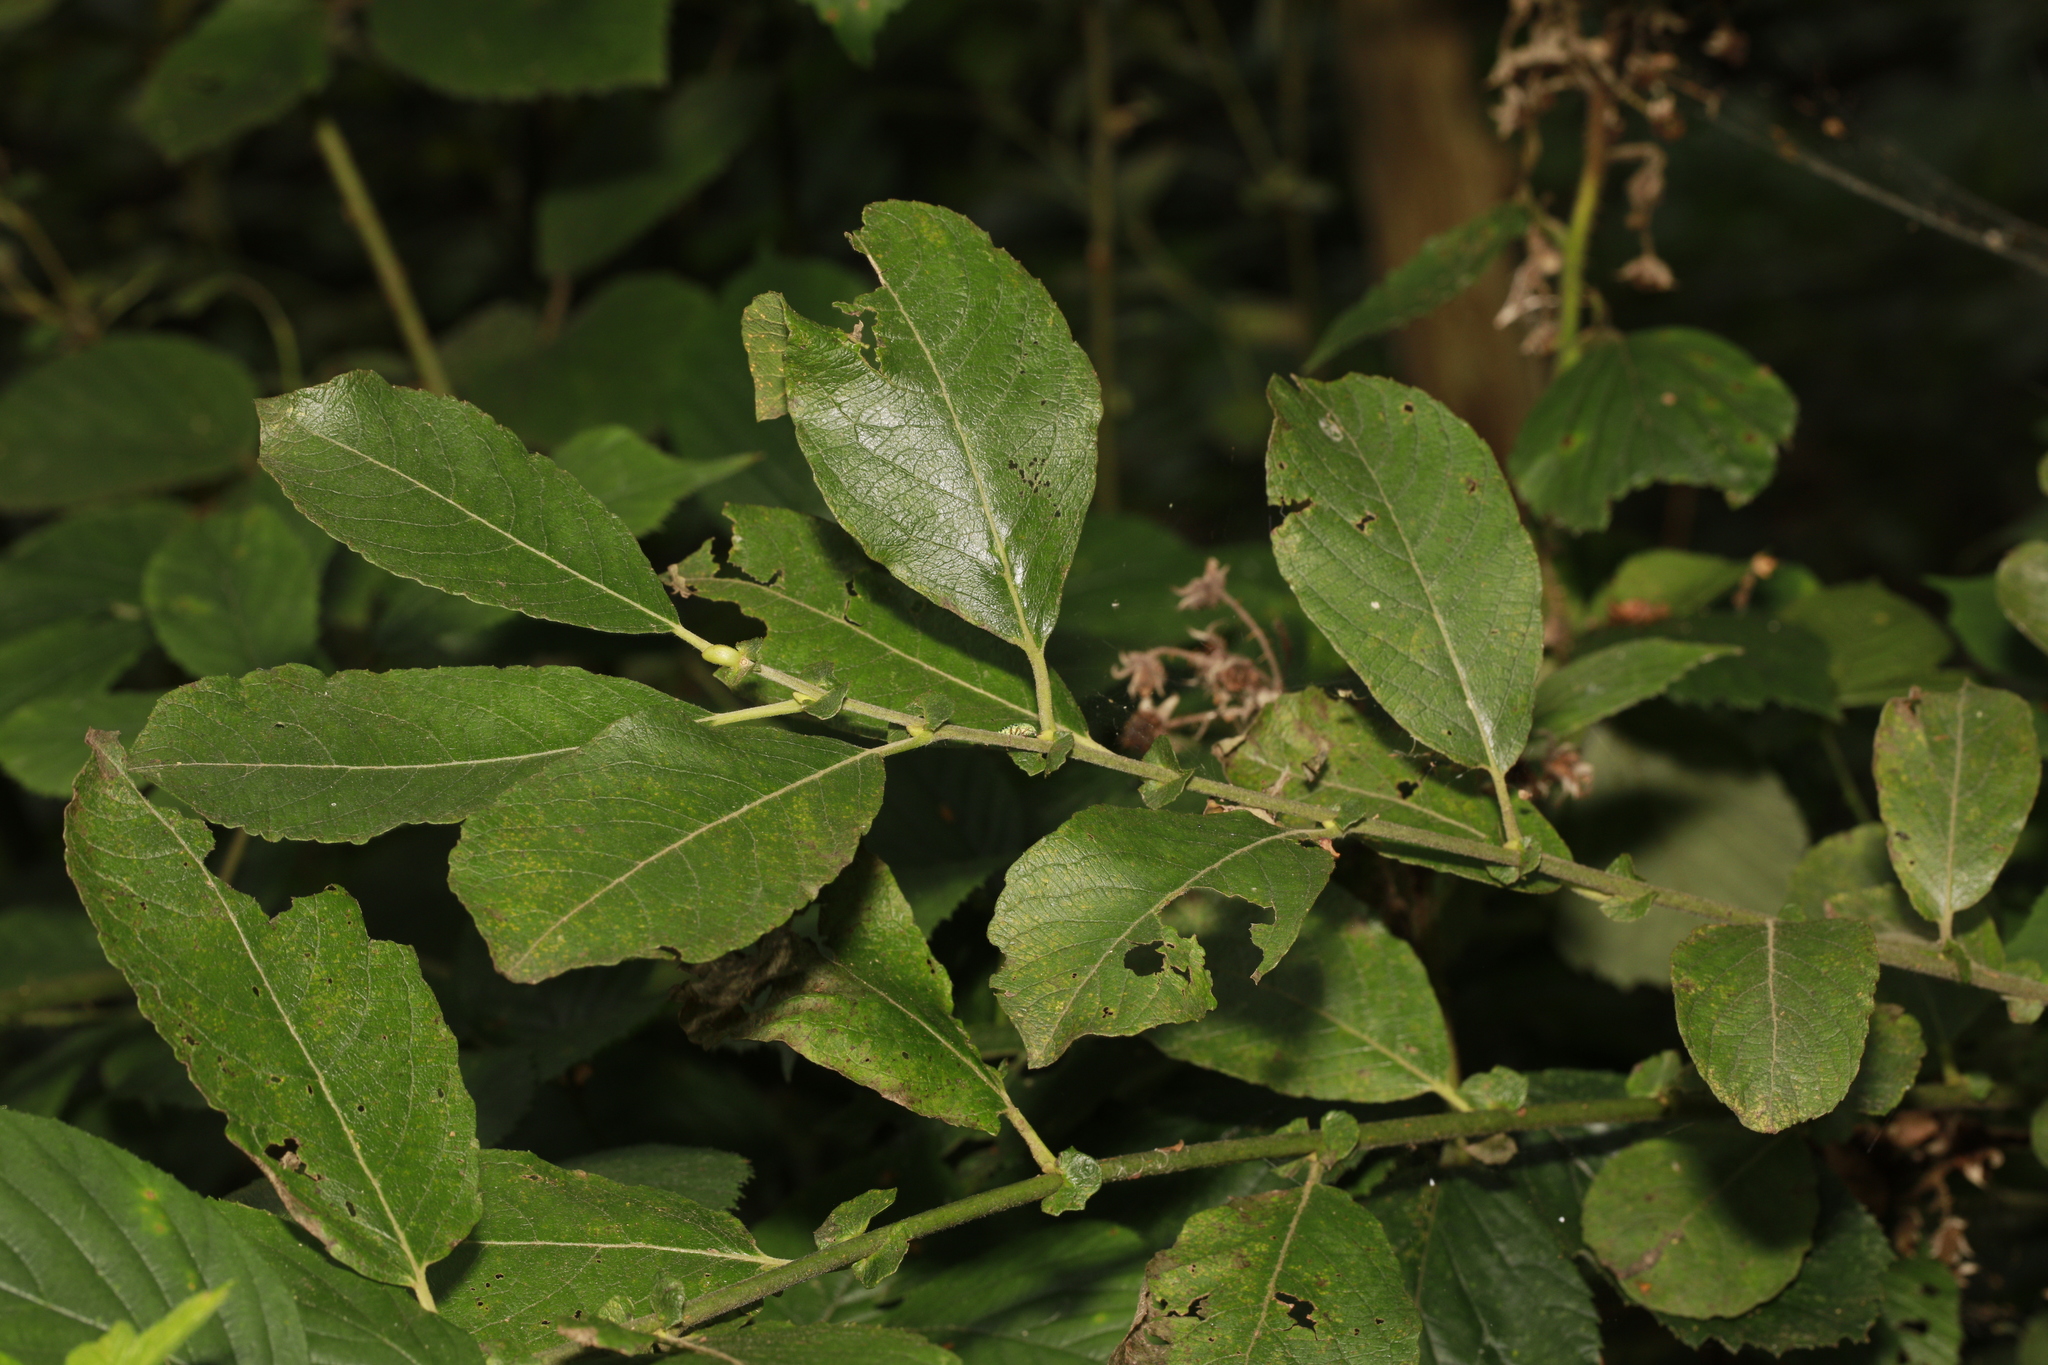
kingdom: Plantae
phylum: Tracheophyta
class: Magnoliopsida
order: Malpighiales
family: Salicaceae
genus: Salix
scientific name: Salix caprea
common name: Goat willow
